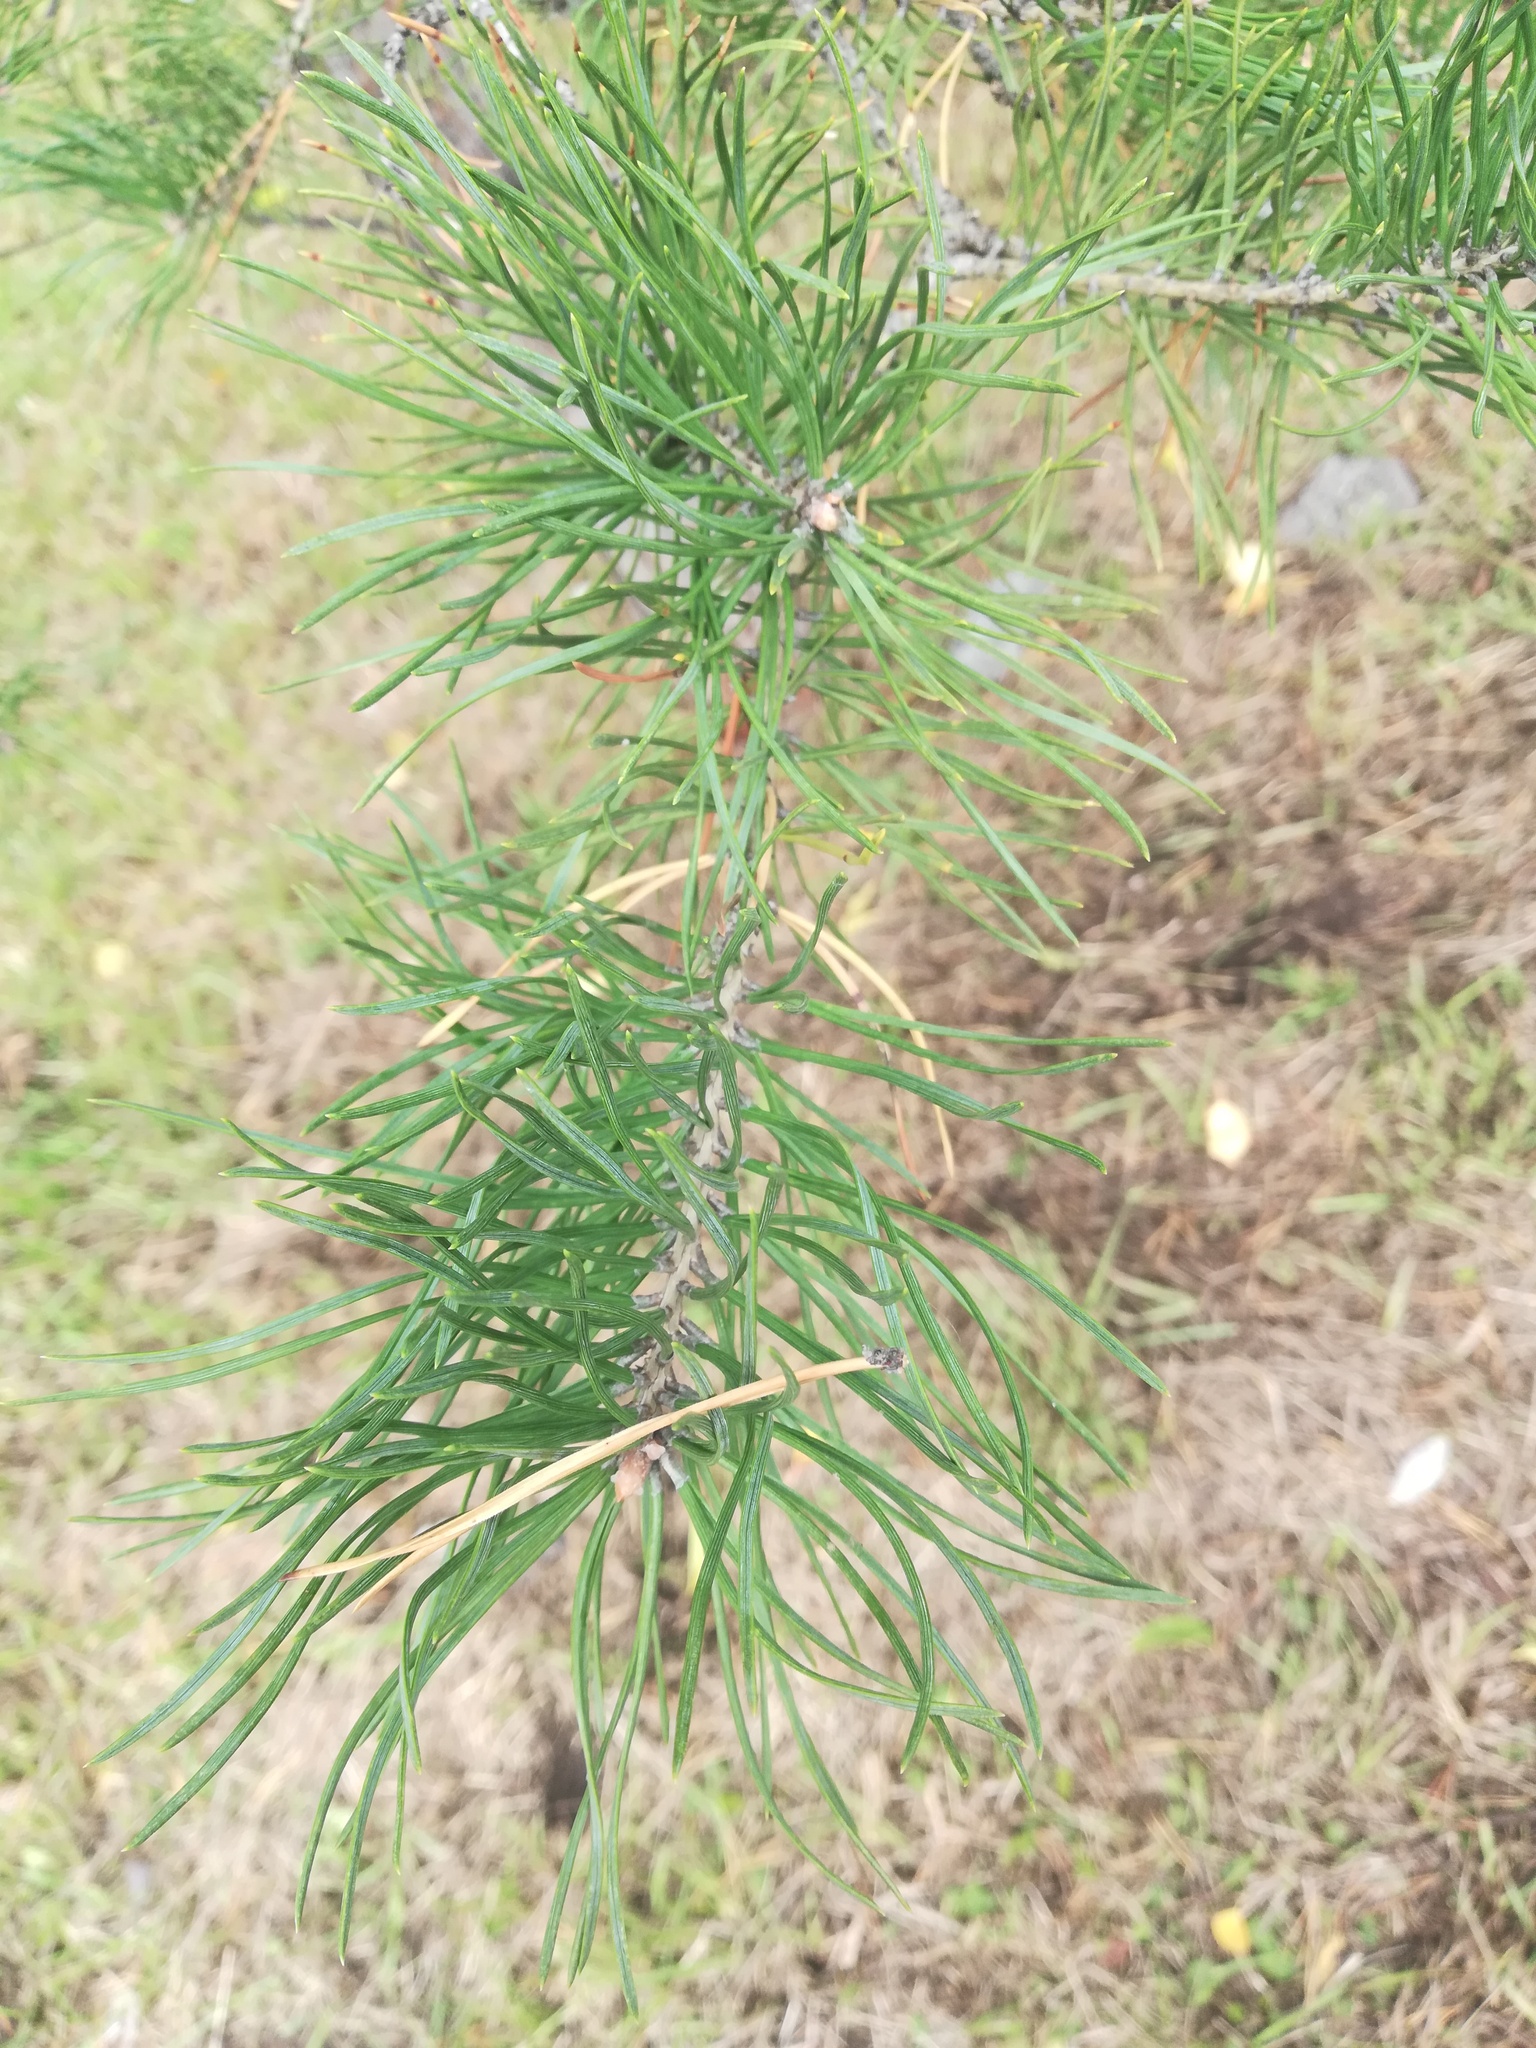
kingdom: Plantae
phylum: Tracheophyta
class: Pinopsida
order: Pinales
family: Pinaceae
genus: Pinus
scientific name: Pinus sylvestris
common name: Scots pine
